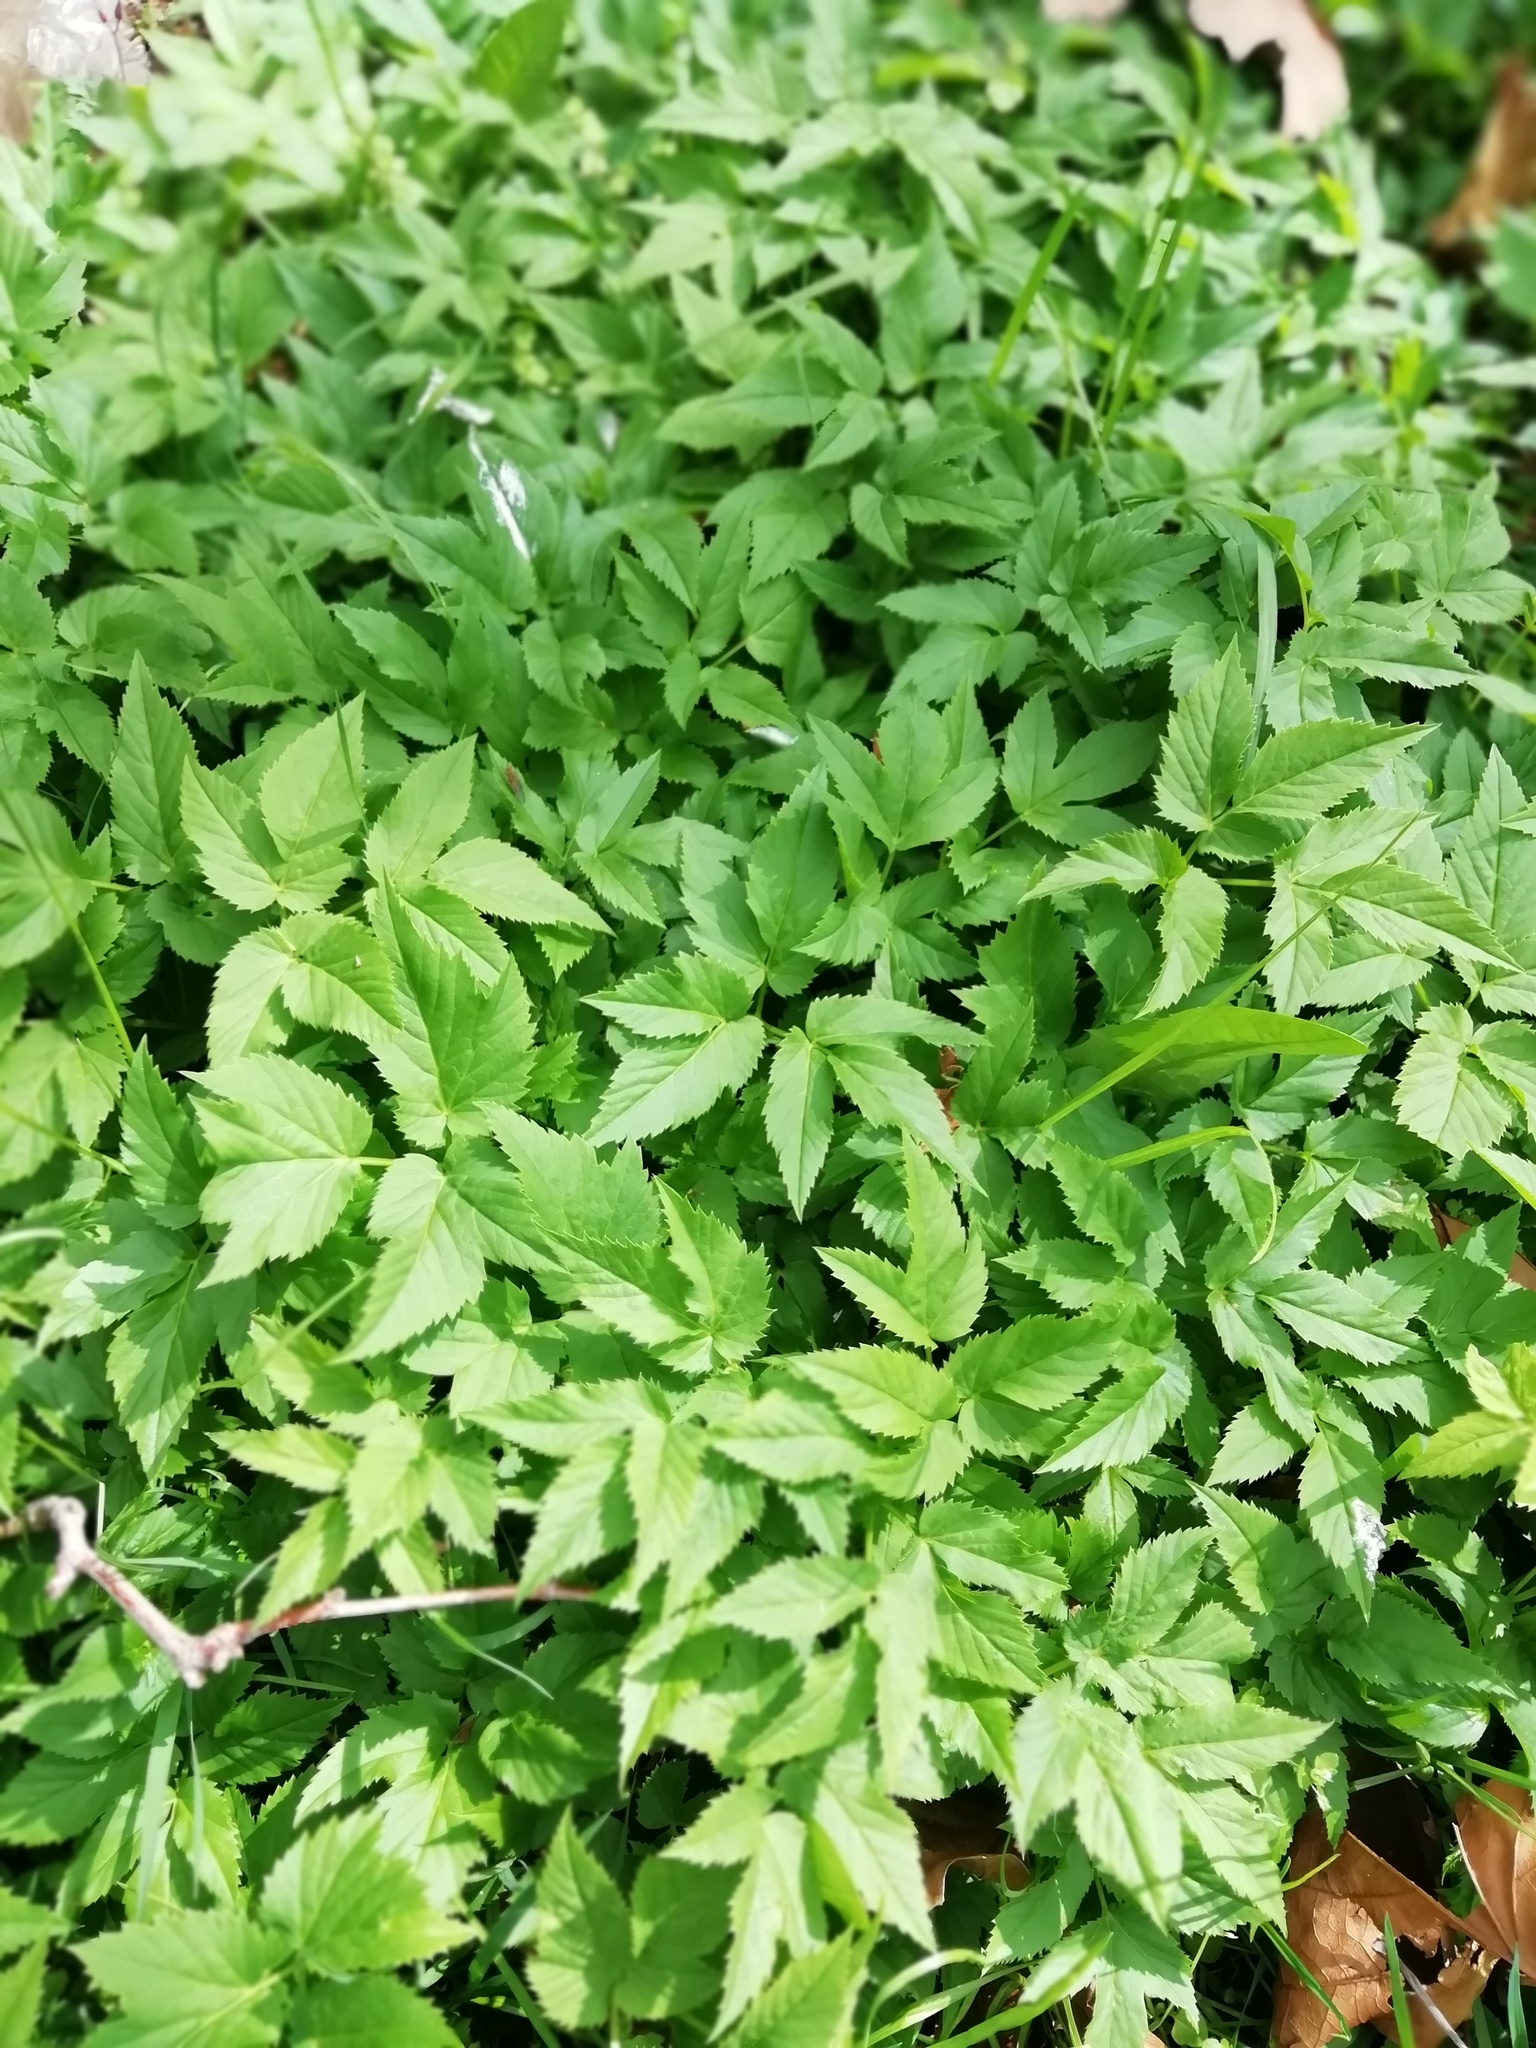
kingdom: Plantae
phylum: Tracheophyta
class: Magnoliopsida
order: Apiales
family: Apiaceae
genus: Aegopodium
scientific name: Aegopodium podagraria
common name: Ground-elder
